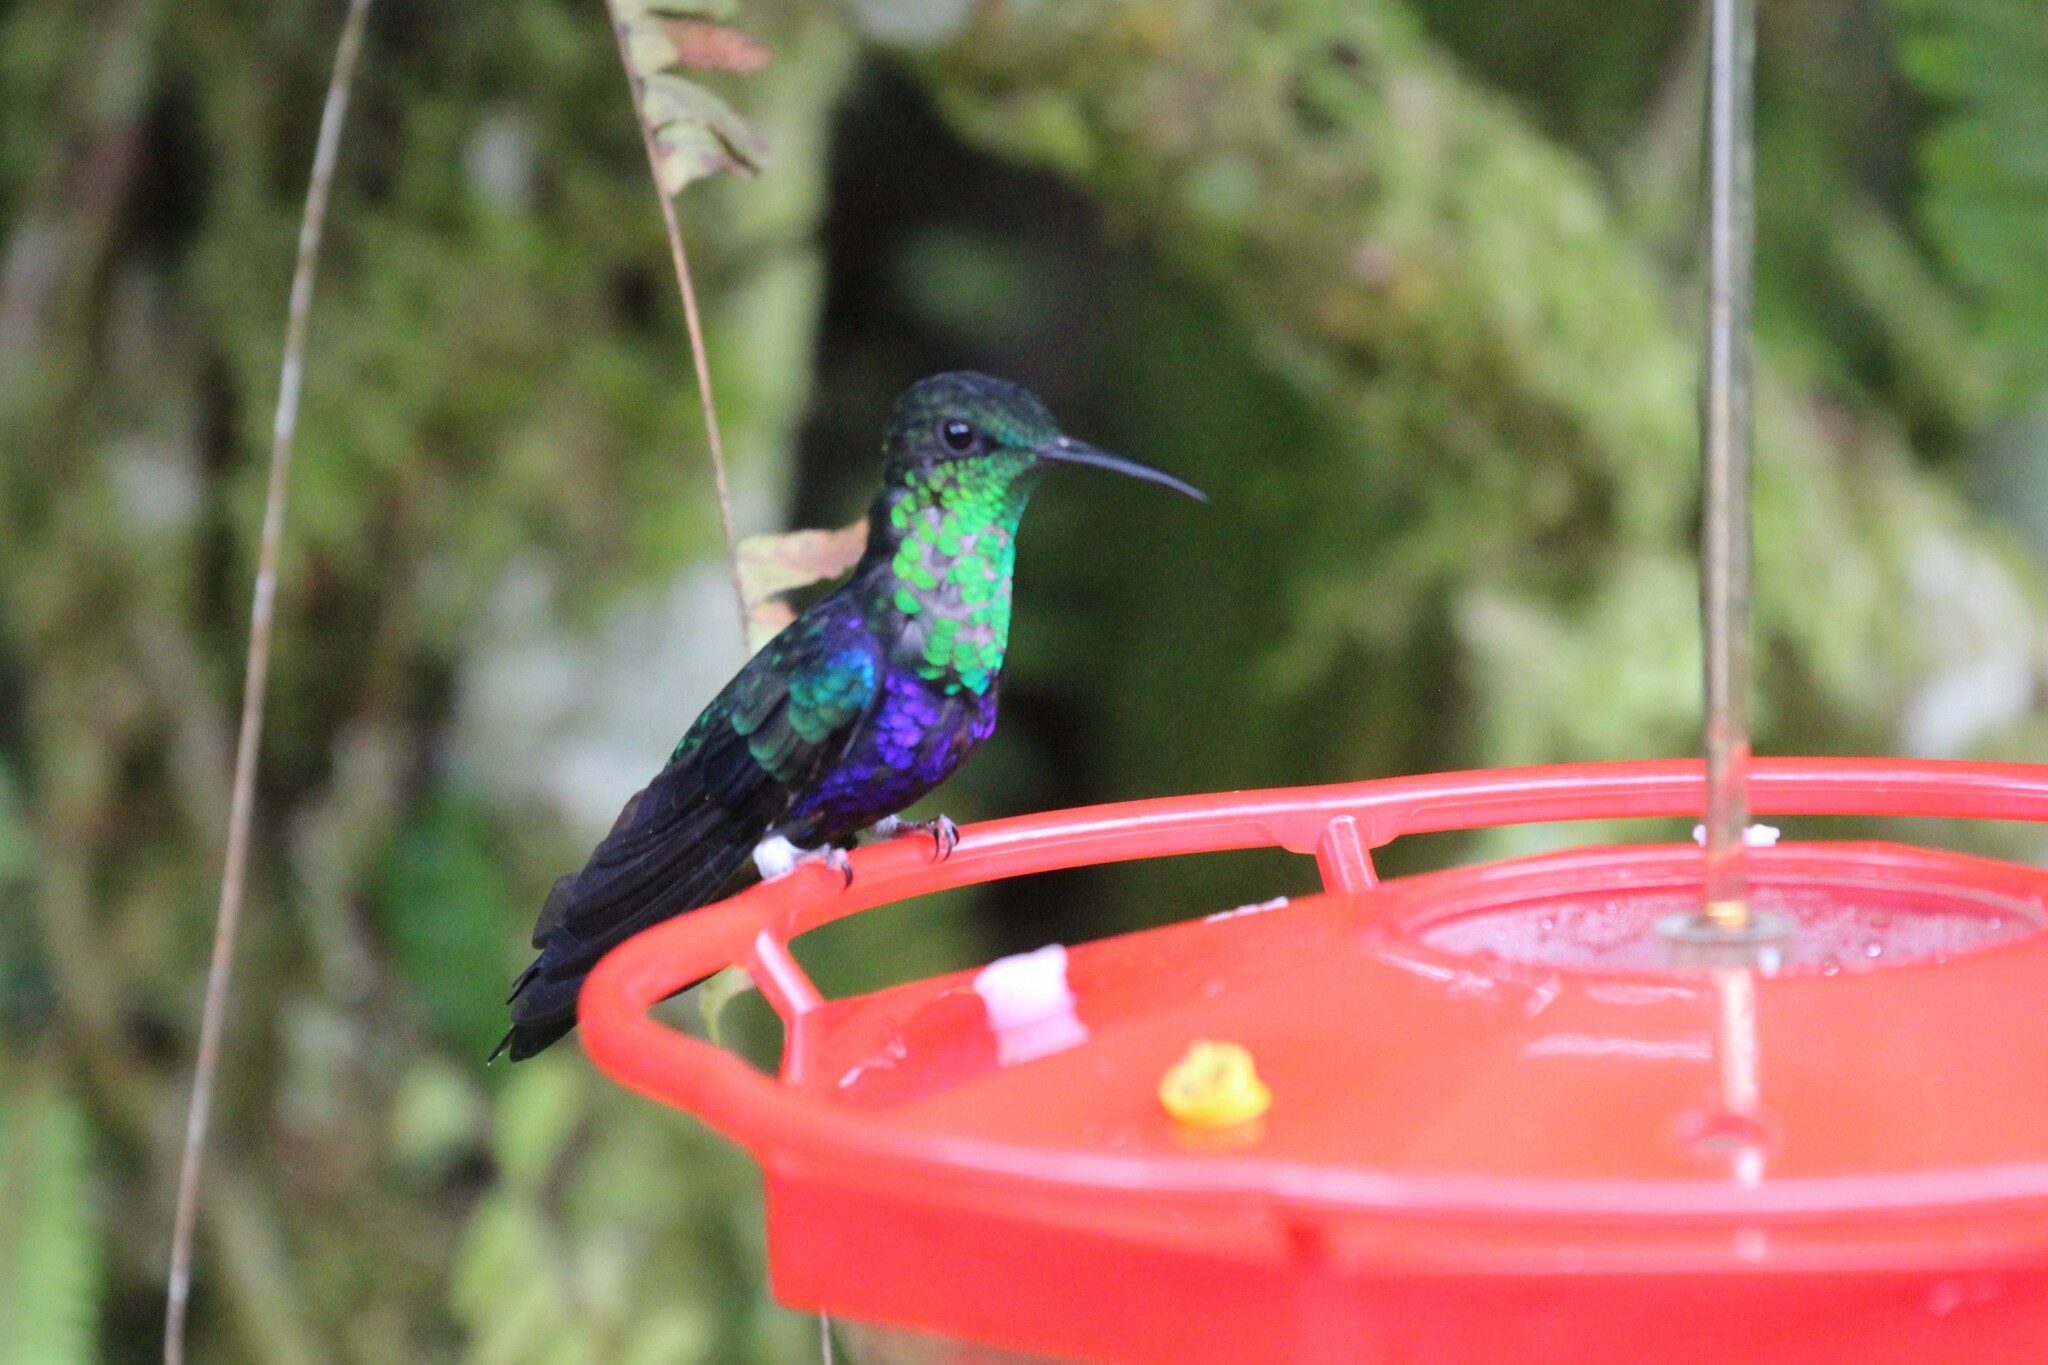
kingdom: Animalia
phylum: Chordata
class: Aves
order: Apodiformes
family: Trochilidae
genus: Thalurania
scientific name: Thalurania furcata
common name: Fork-tailed woodnymph
